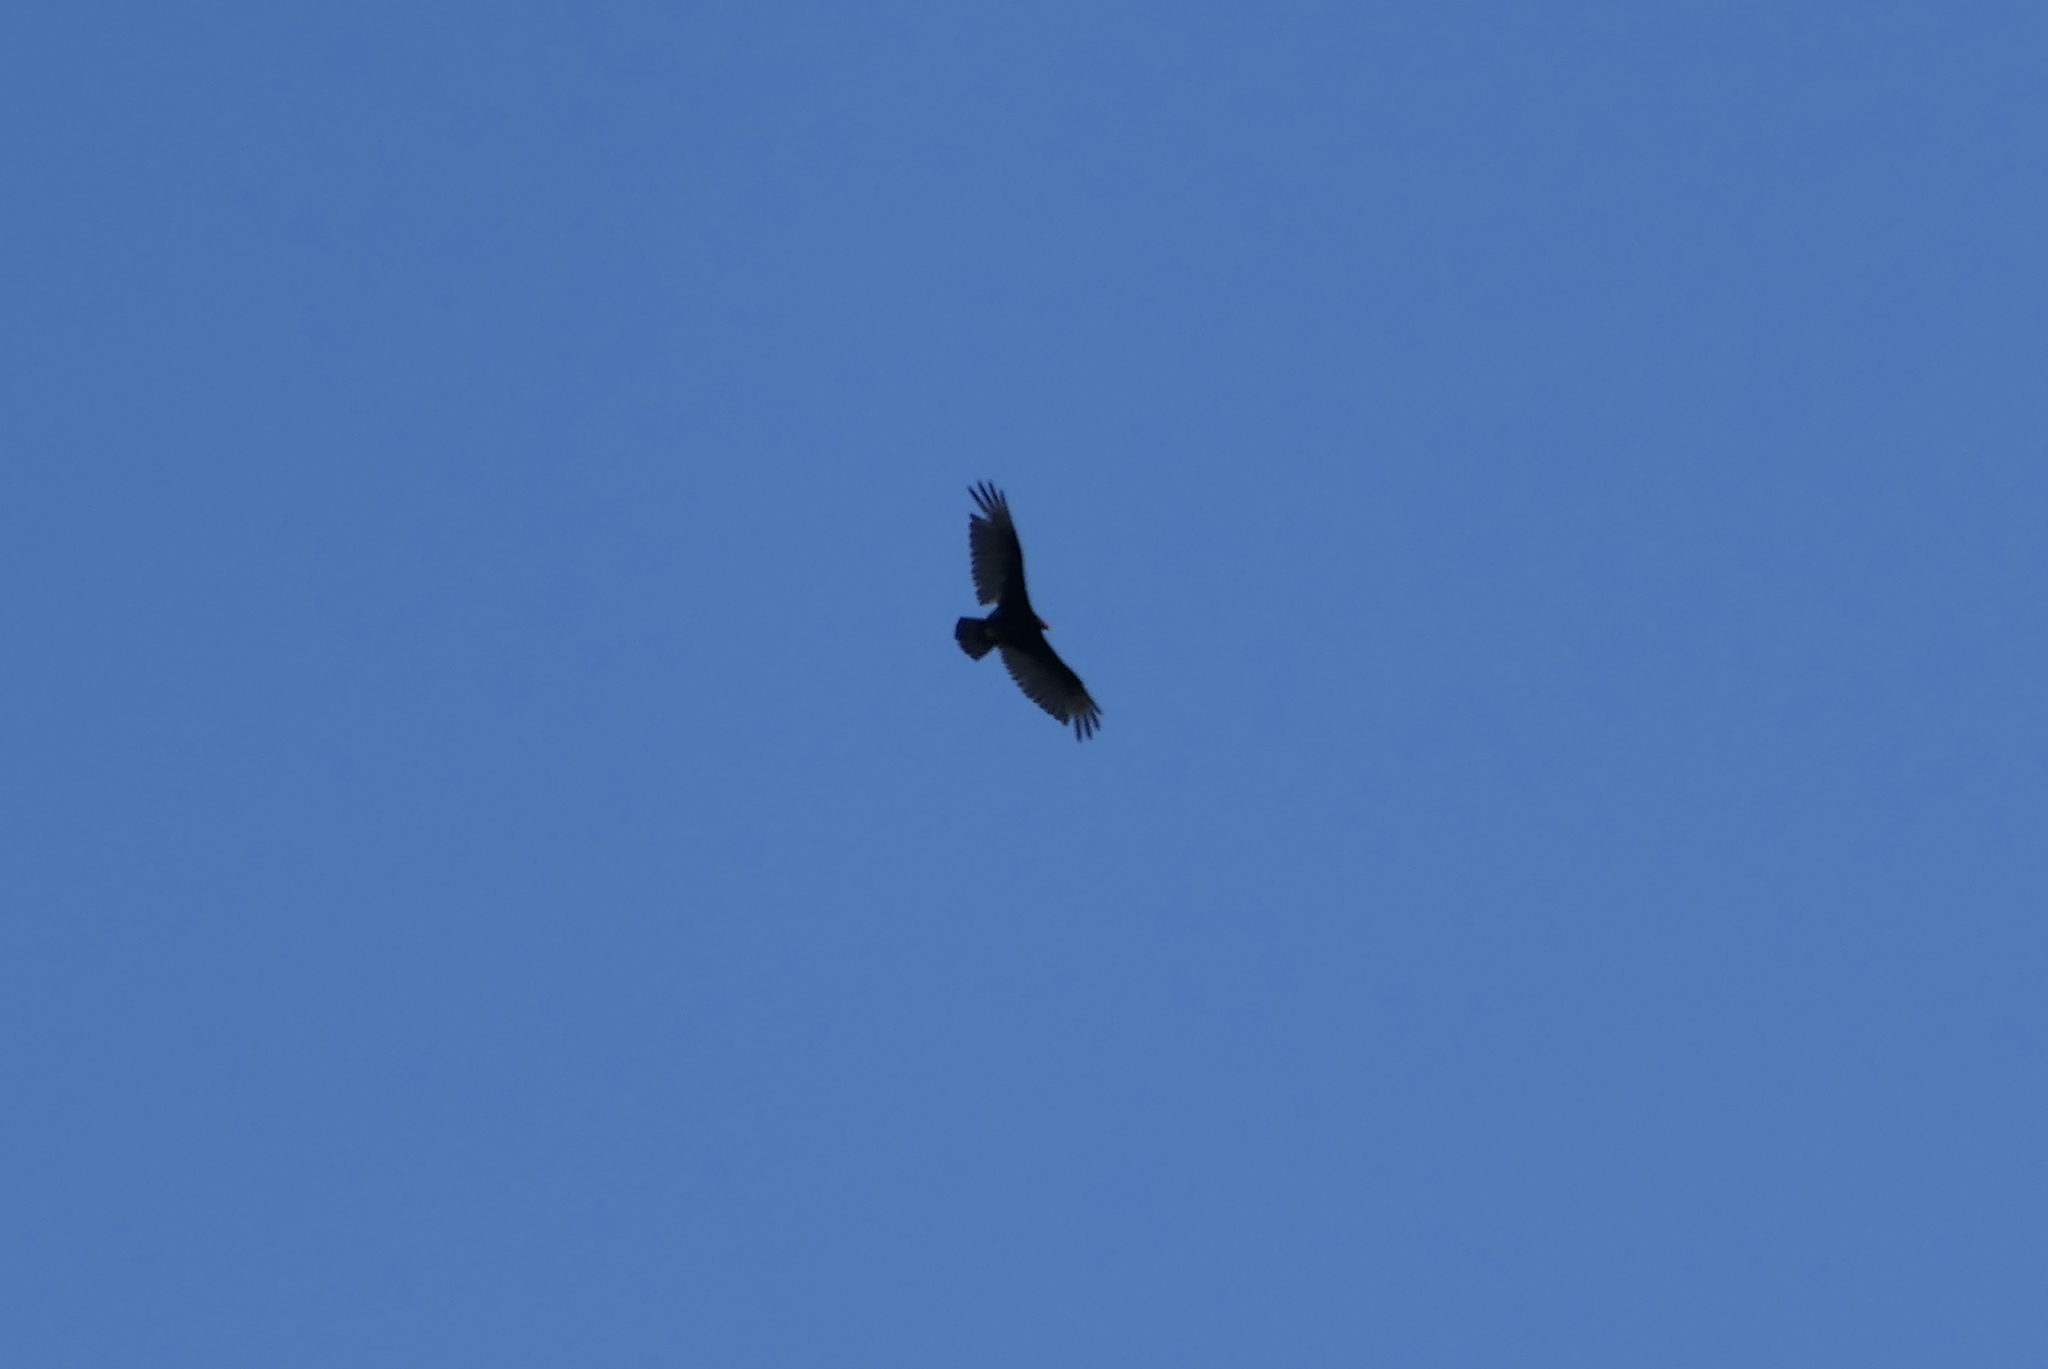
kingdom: Animalia
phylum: Chordata
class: Aves
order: Accipitriformes
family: Cathartidae
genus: Cathartes
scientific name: Cathartes aura
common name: Turkey vulture
